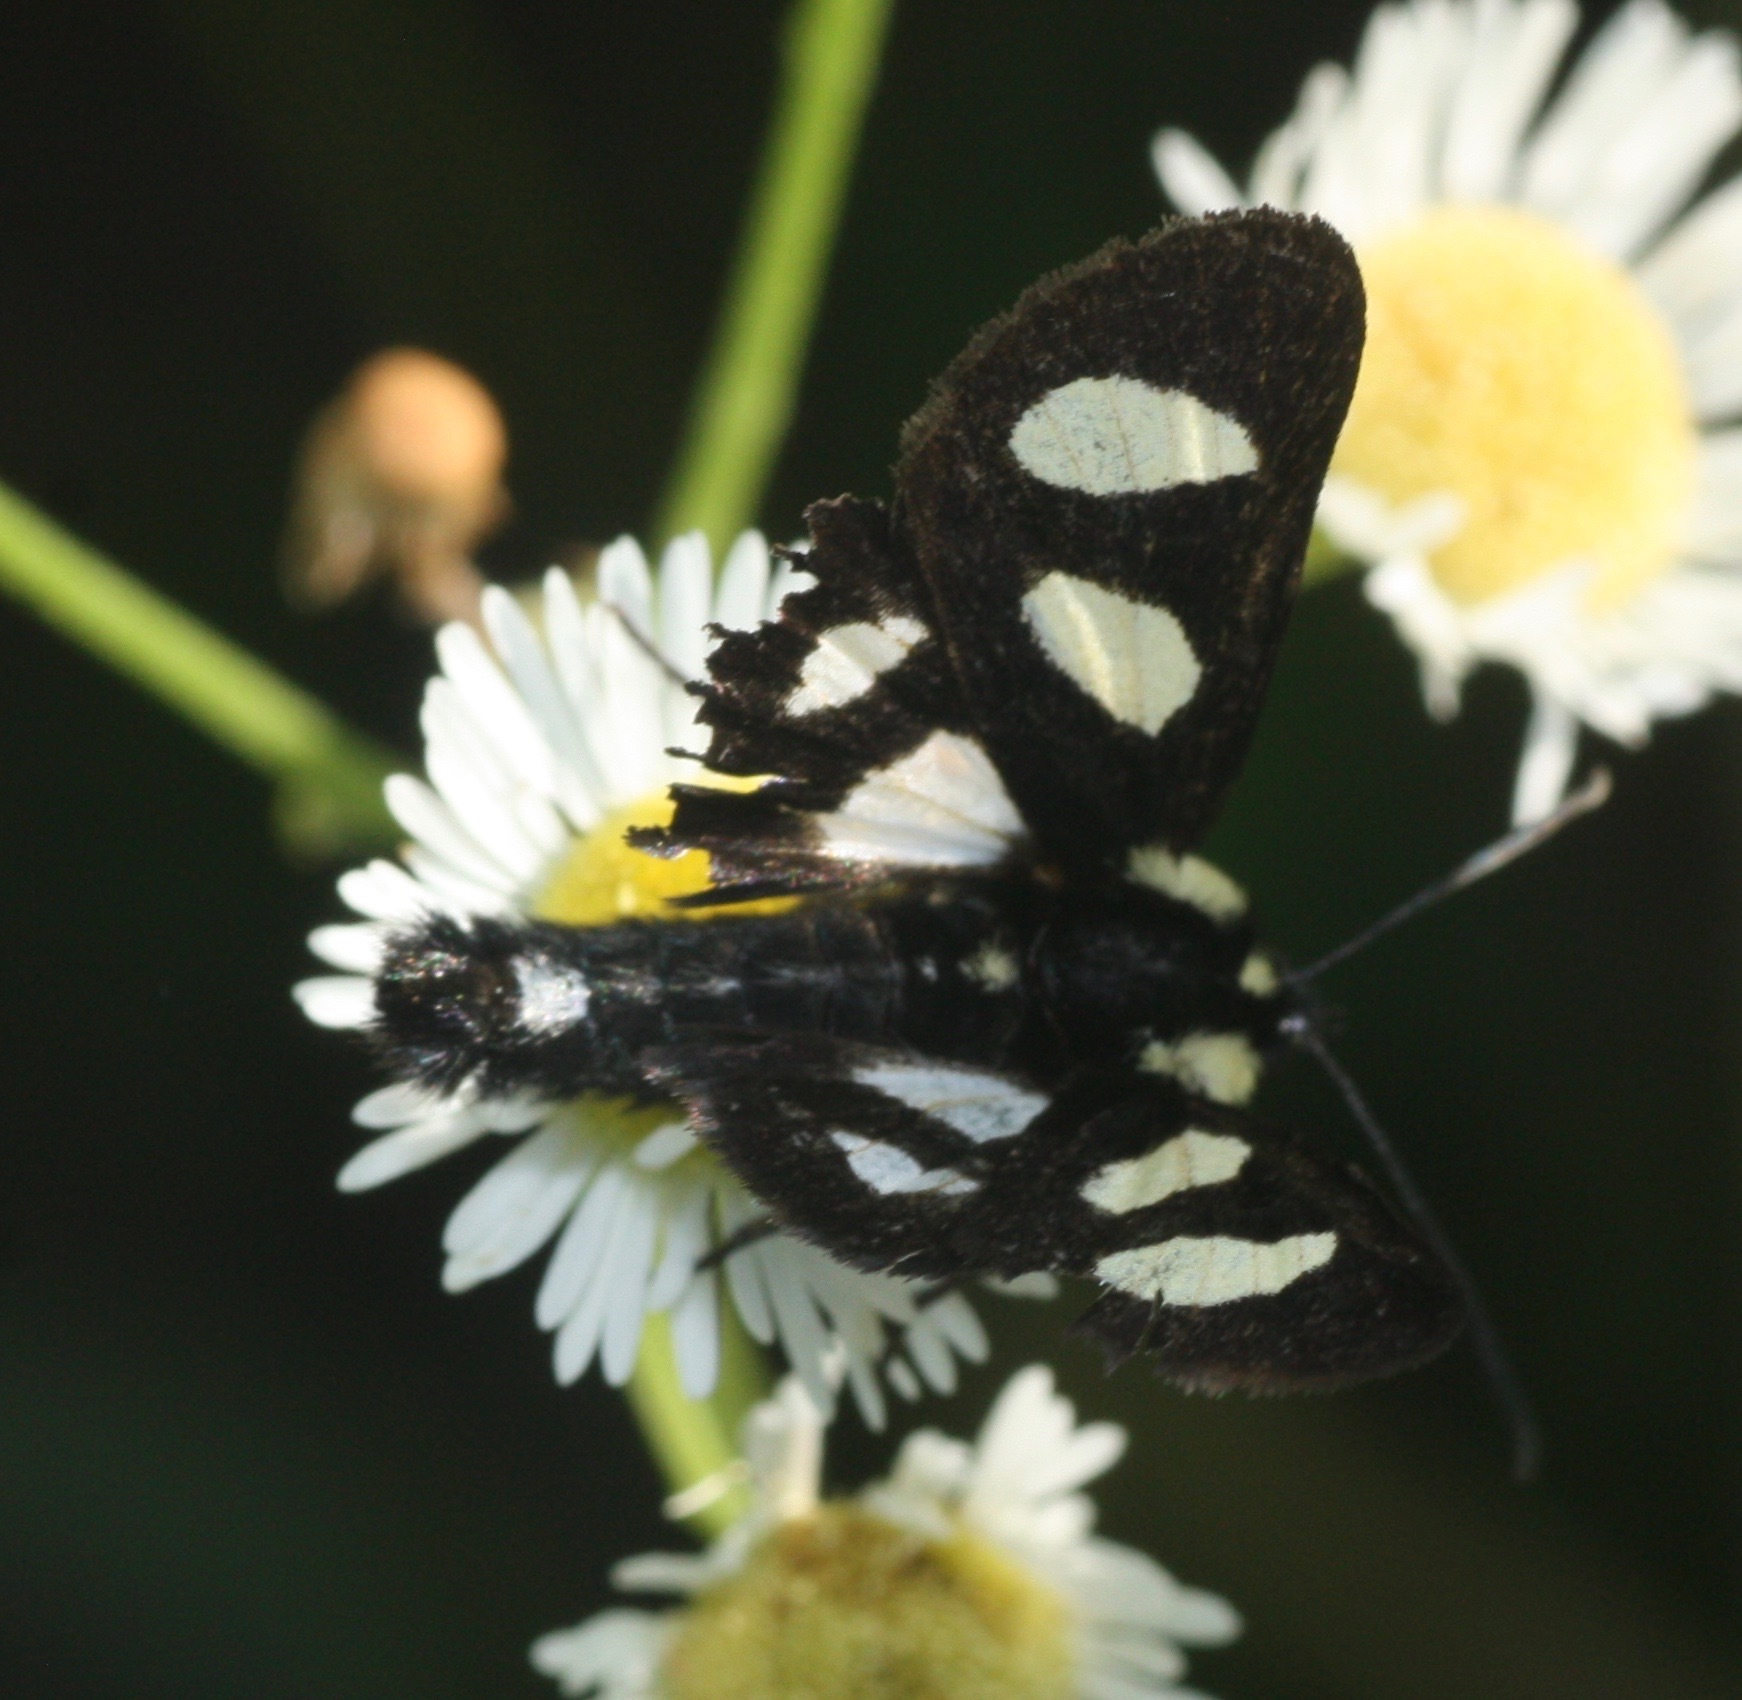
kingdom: Animalia
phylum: Arthropoda
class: Insecta
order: Lepidoptera
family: Noctuidae
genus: Alypia
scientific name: Alypia octomaculata
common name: Eight-spotted forester
